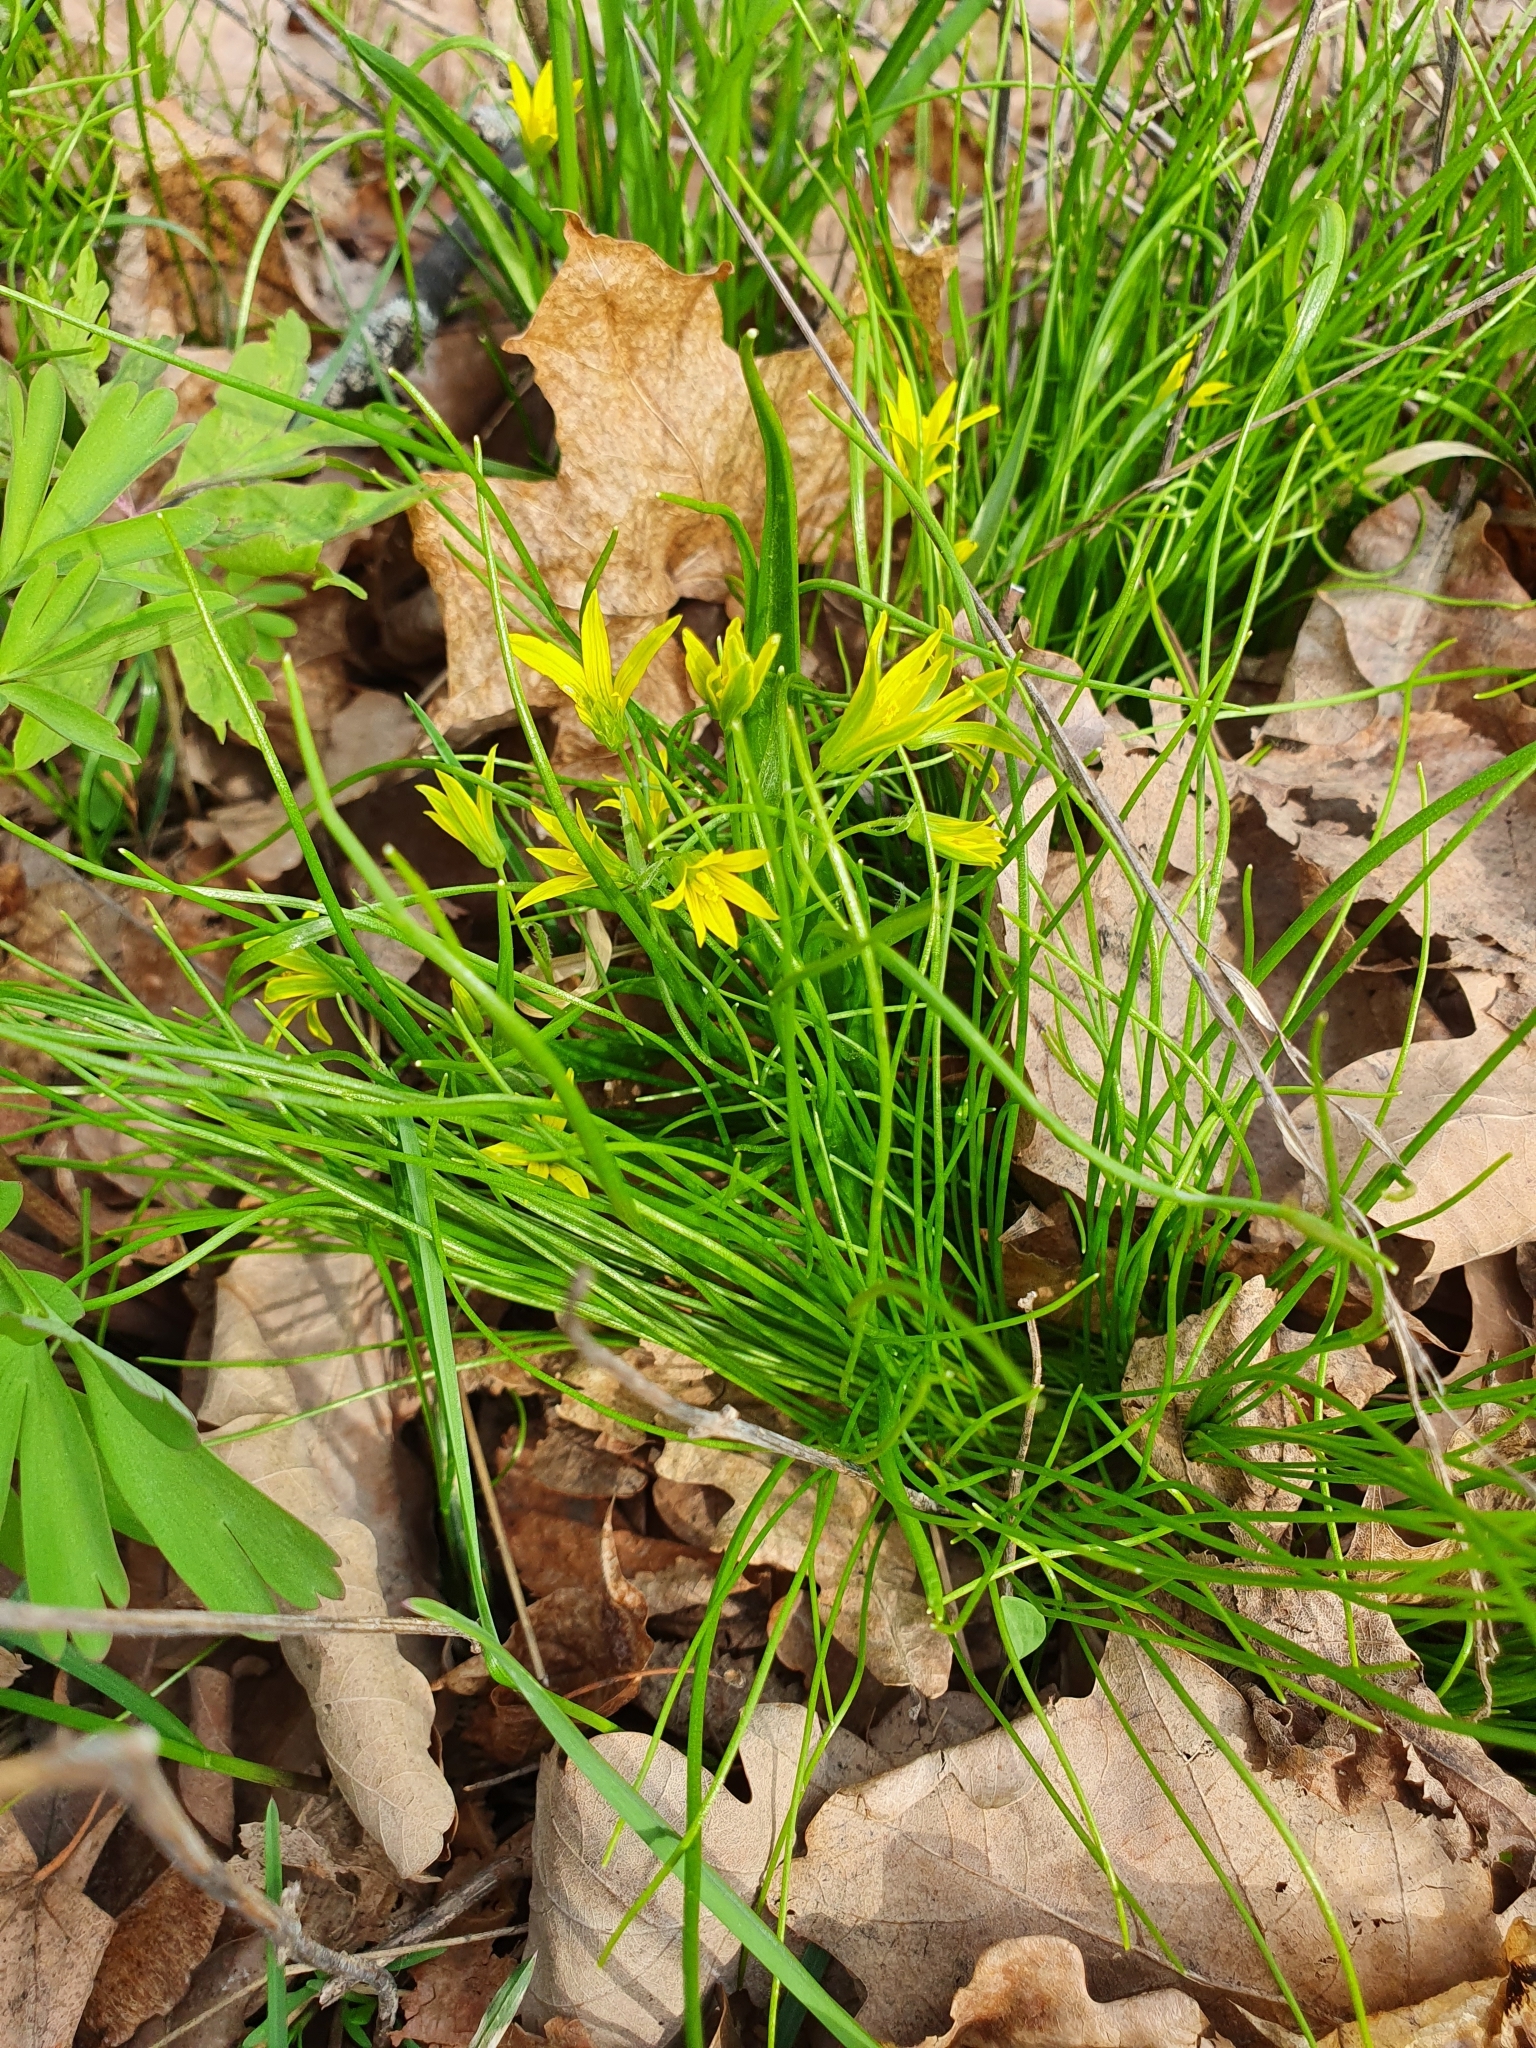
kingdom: Plantae
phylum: Tracheophyta
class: Liliopsida
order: Liliales
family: Liliaceae
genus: Gagea
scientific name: Gagea minima
